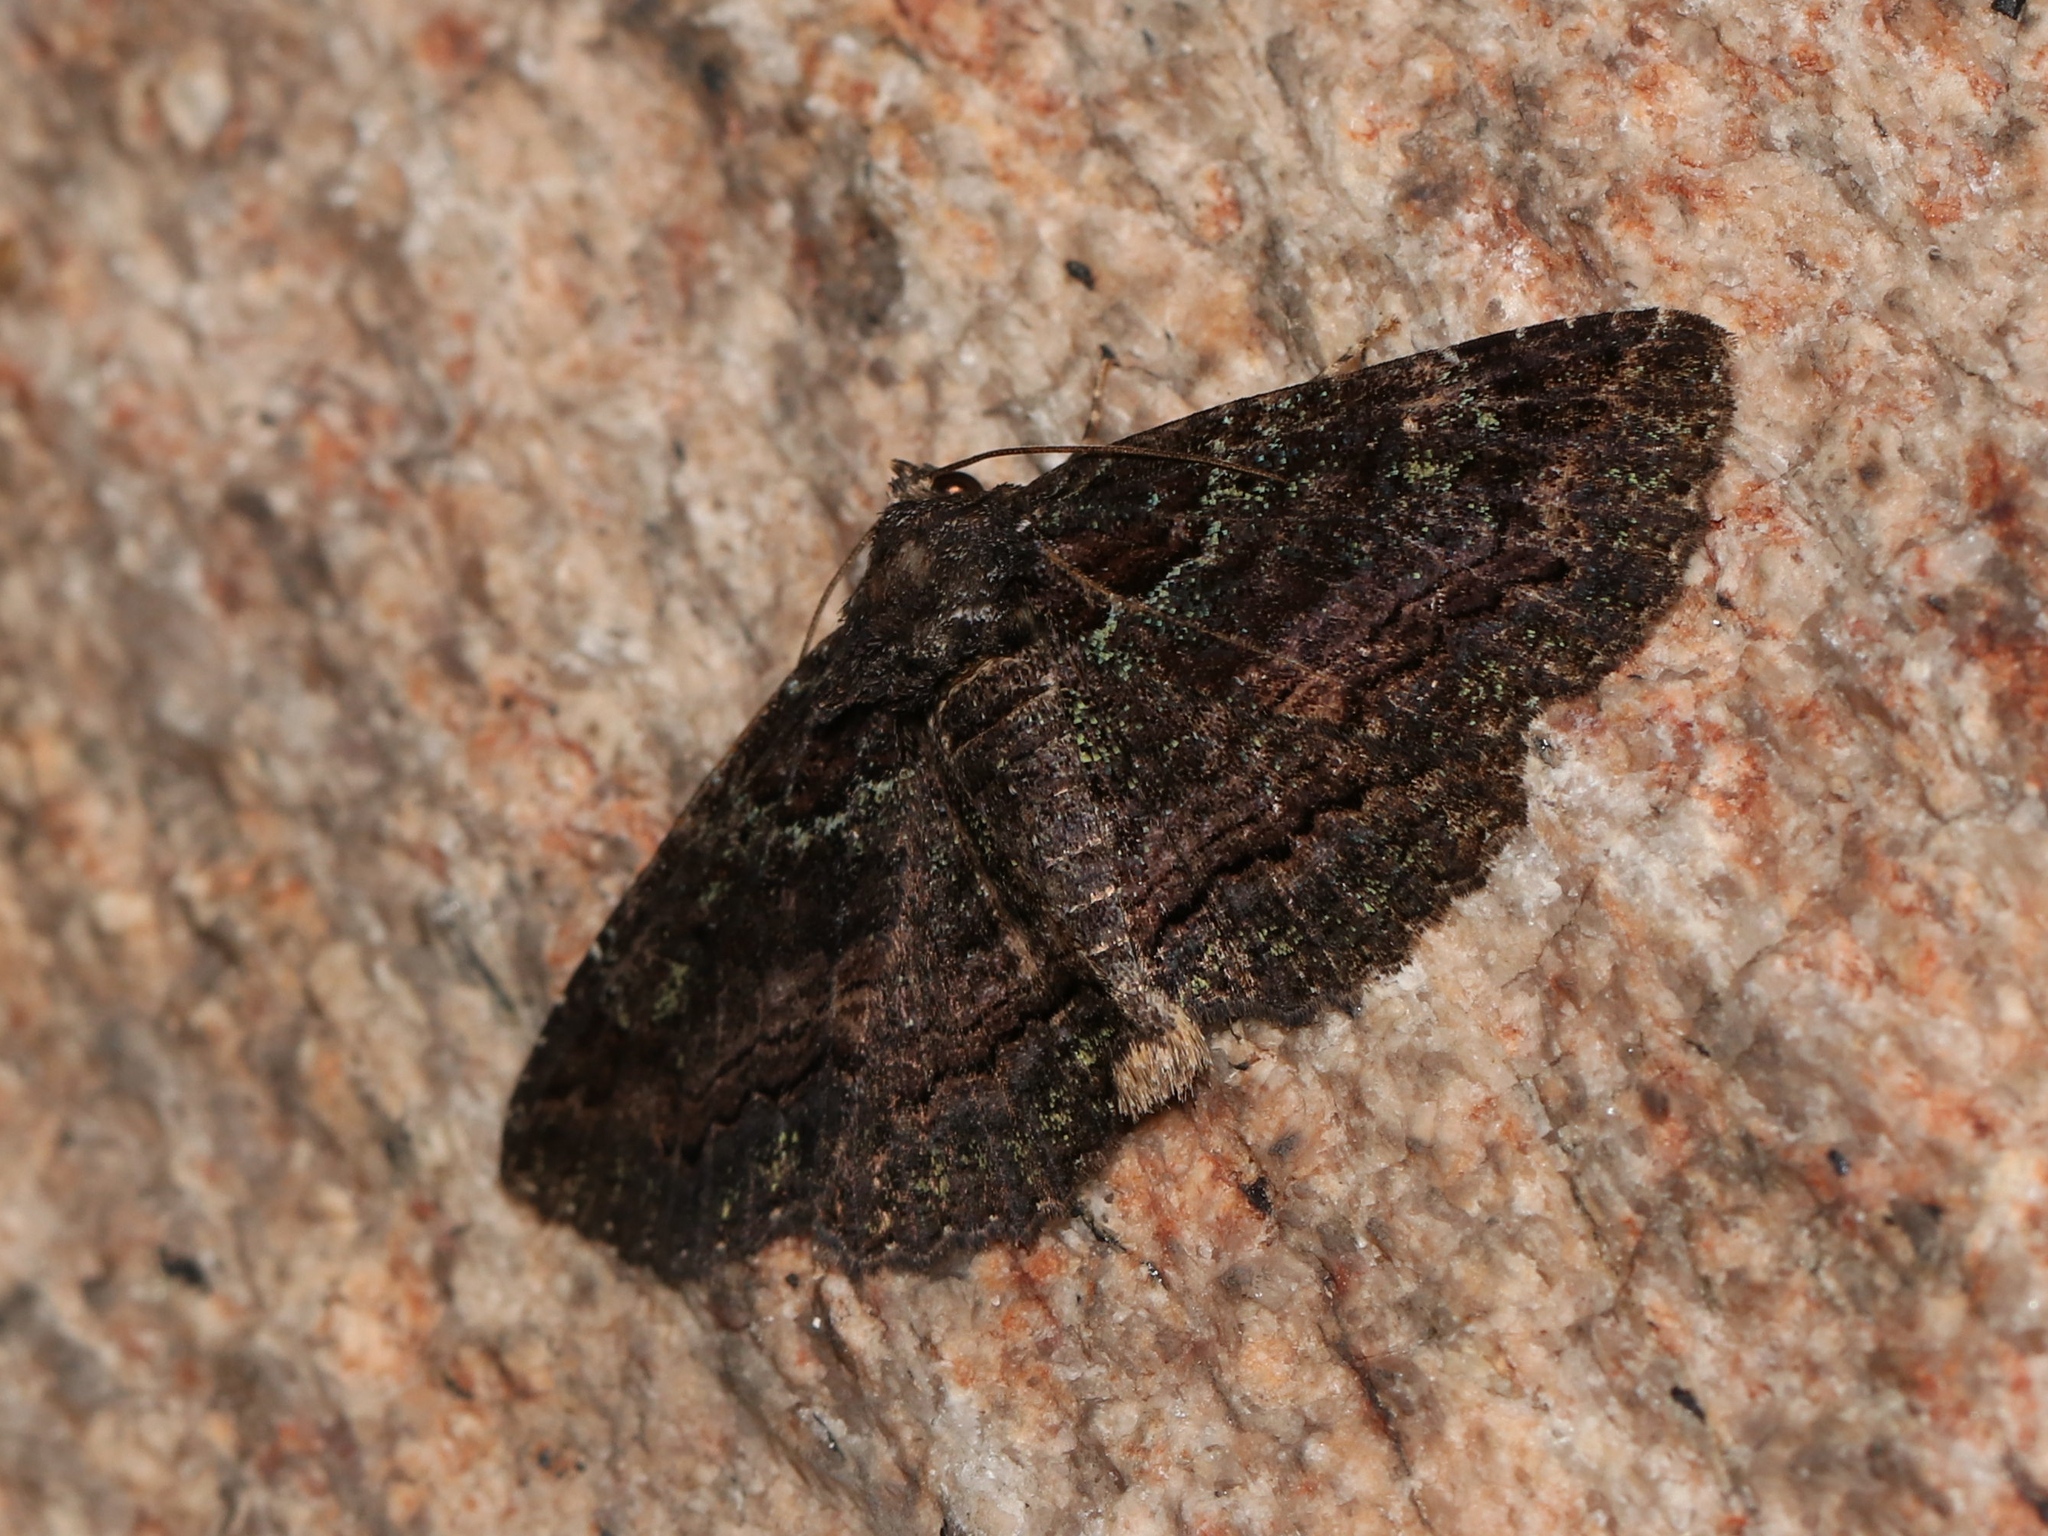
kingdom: Animalia
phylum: Arthropoda
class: Insecta
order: Lepidoptera
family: Erebidae
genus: Zale
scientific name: Zale aeruginosa
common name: Green-dusted zale moth
